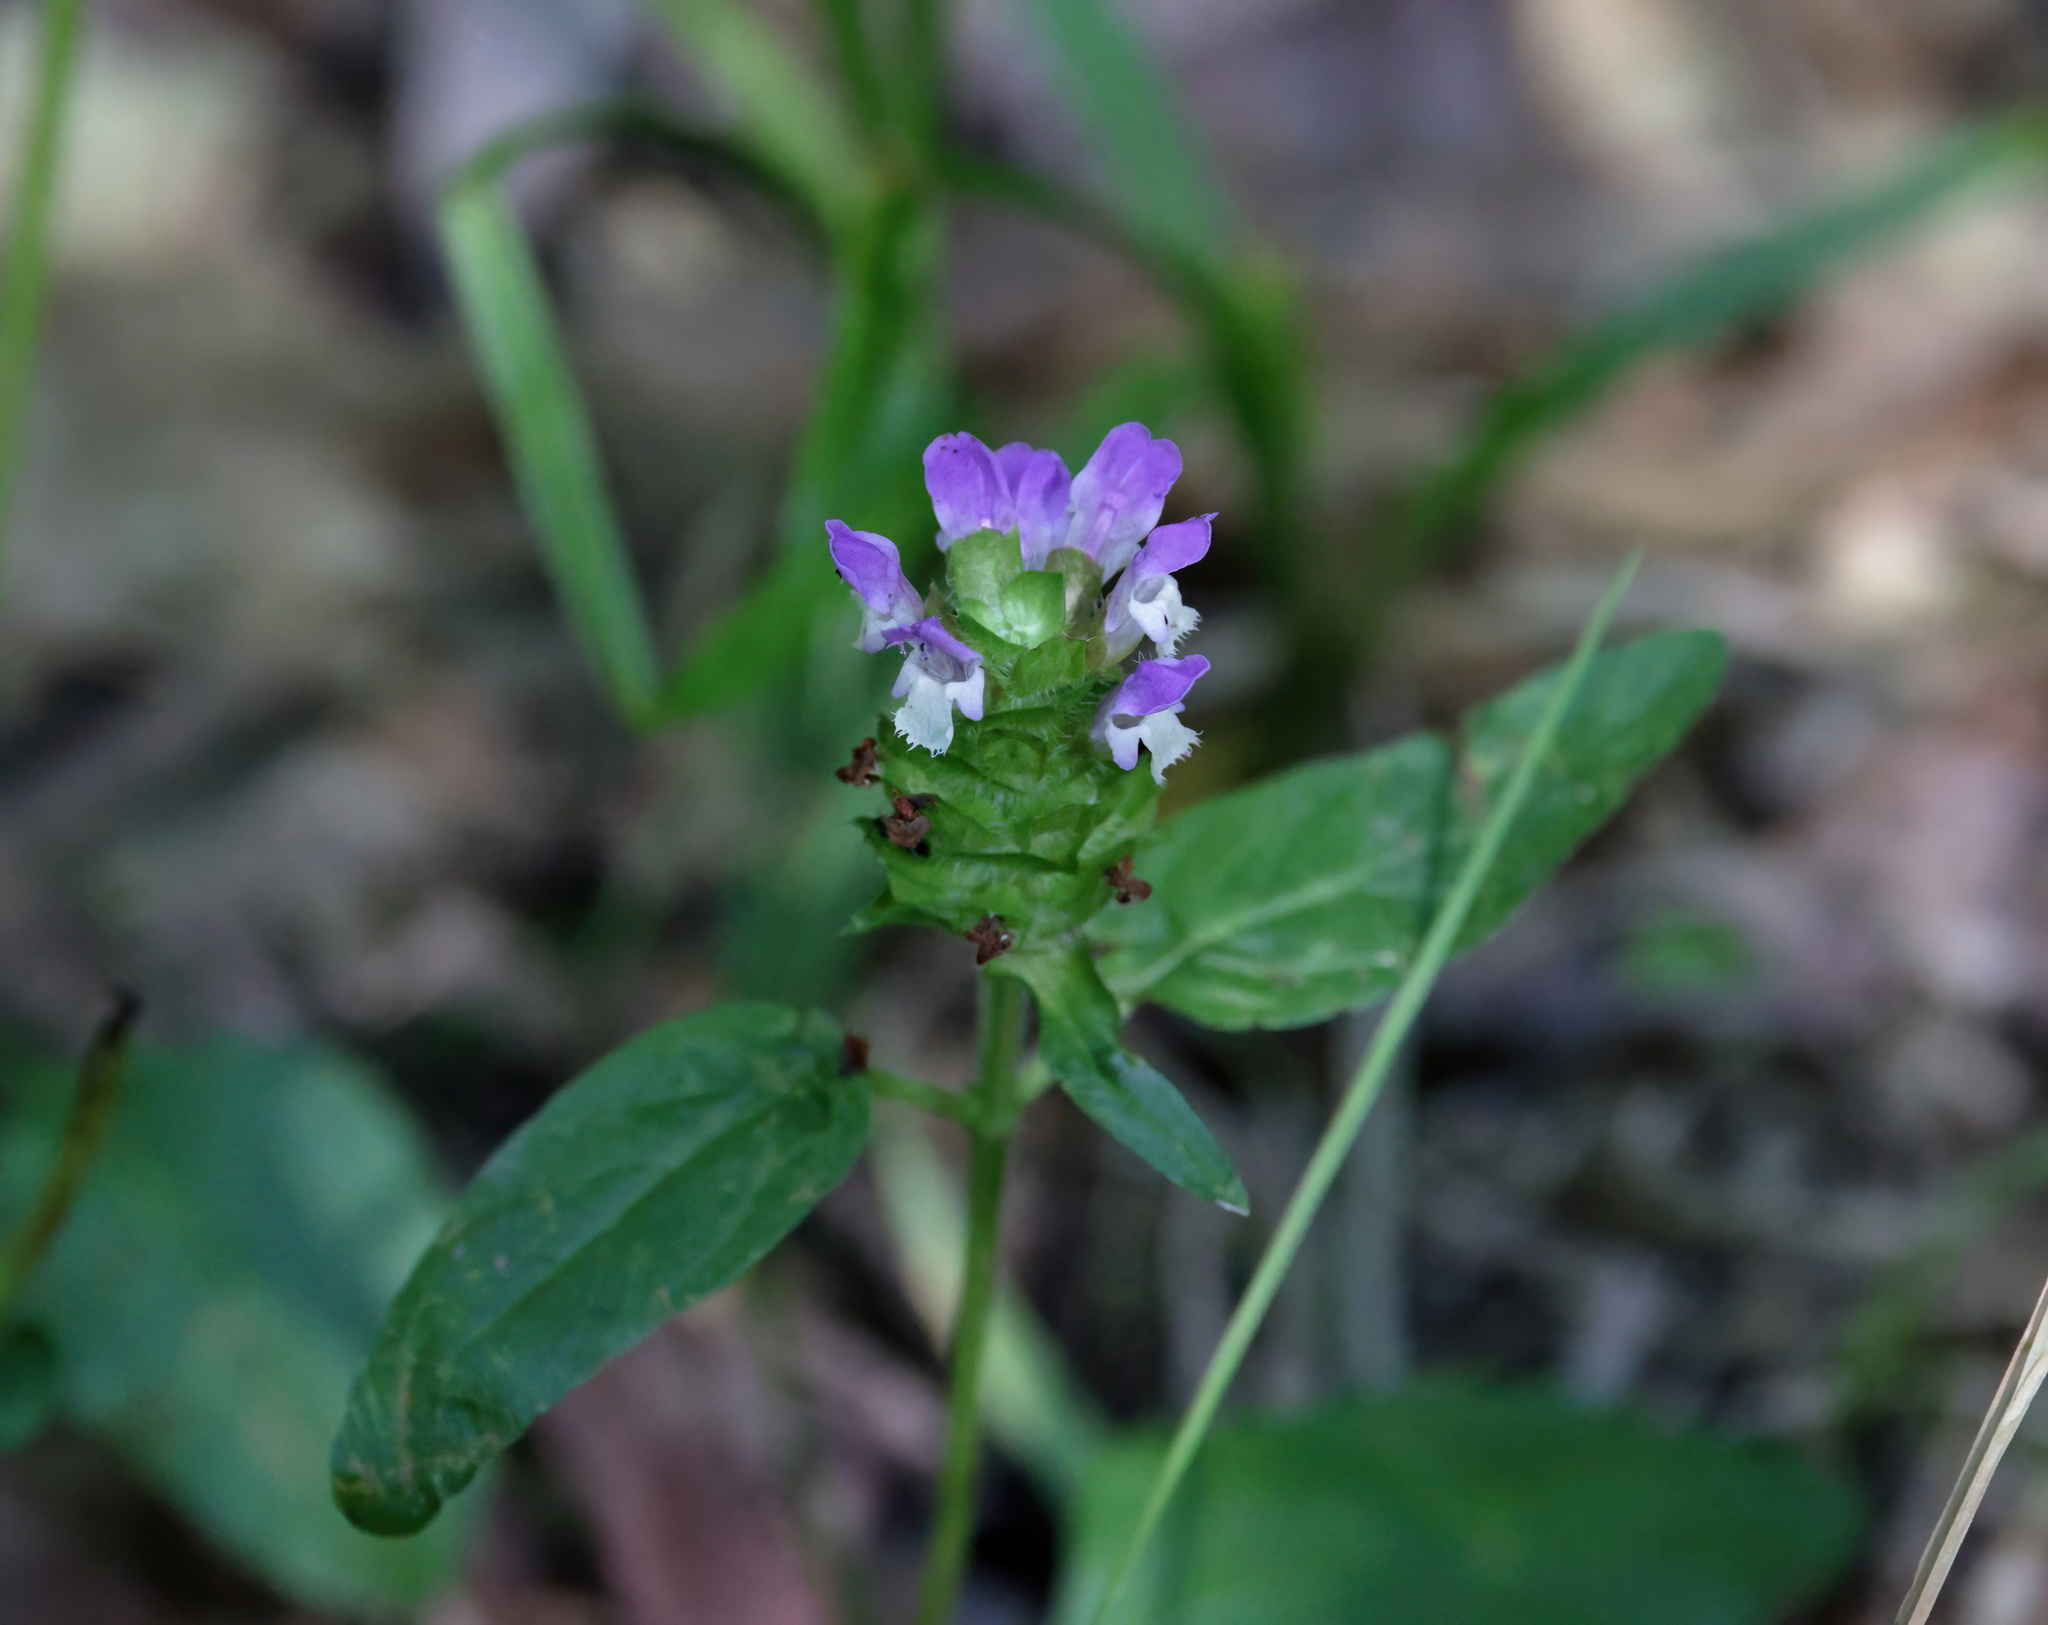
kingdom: Plantae
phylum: Tracheophyta
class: Magnoliopsida
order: Lamiales
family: Lamiaceae
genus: Prunella
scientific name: Prunella vulgaris
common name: Heal-all
